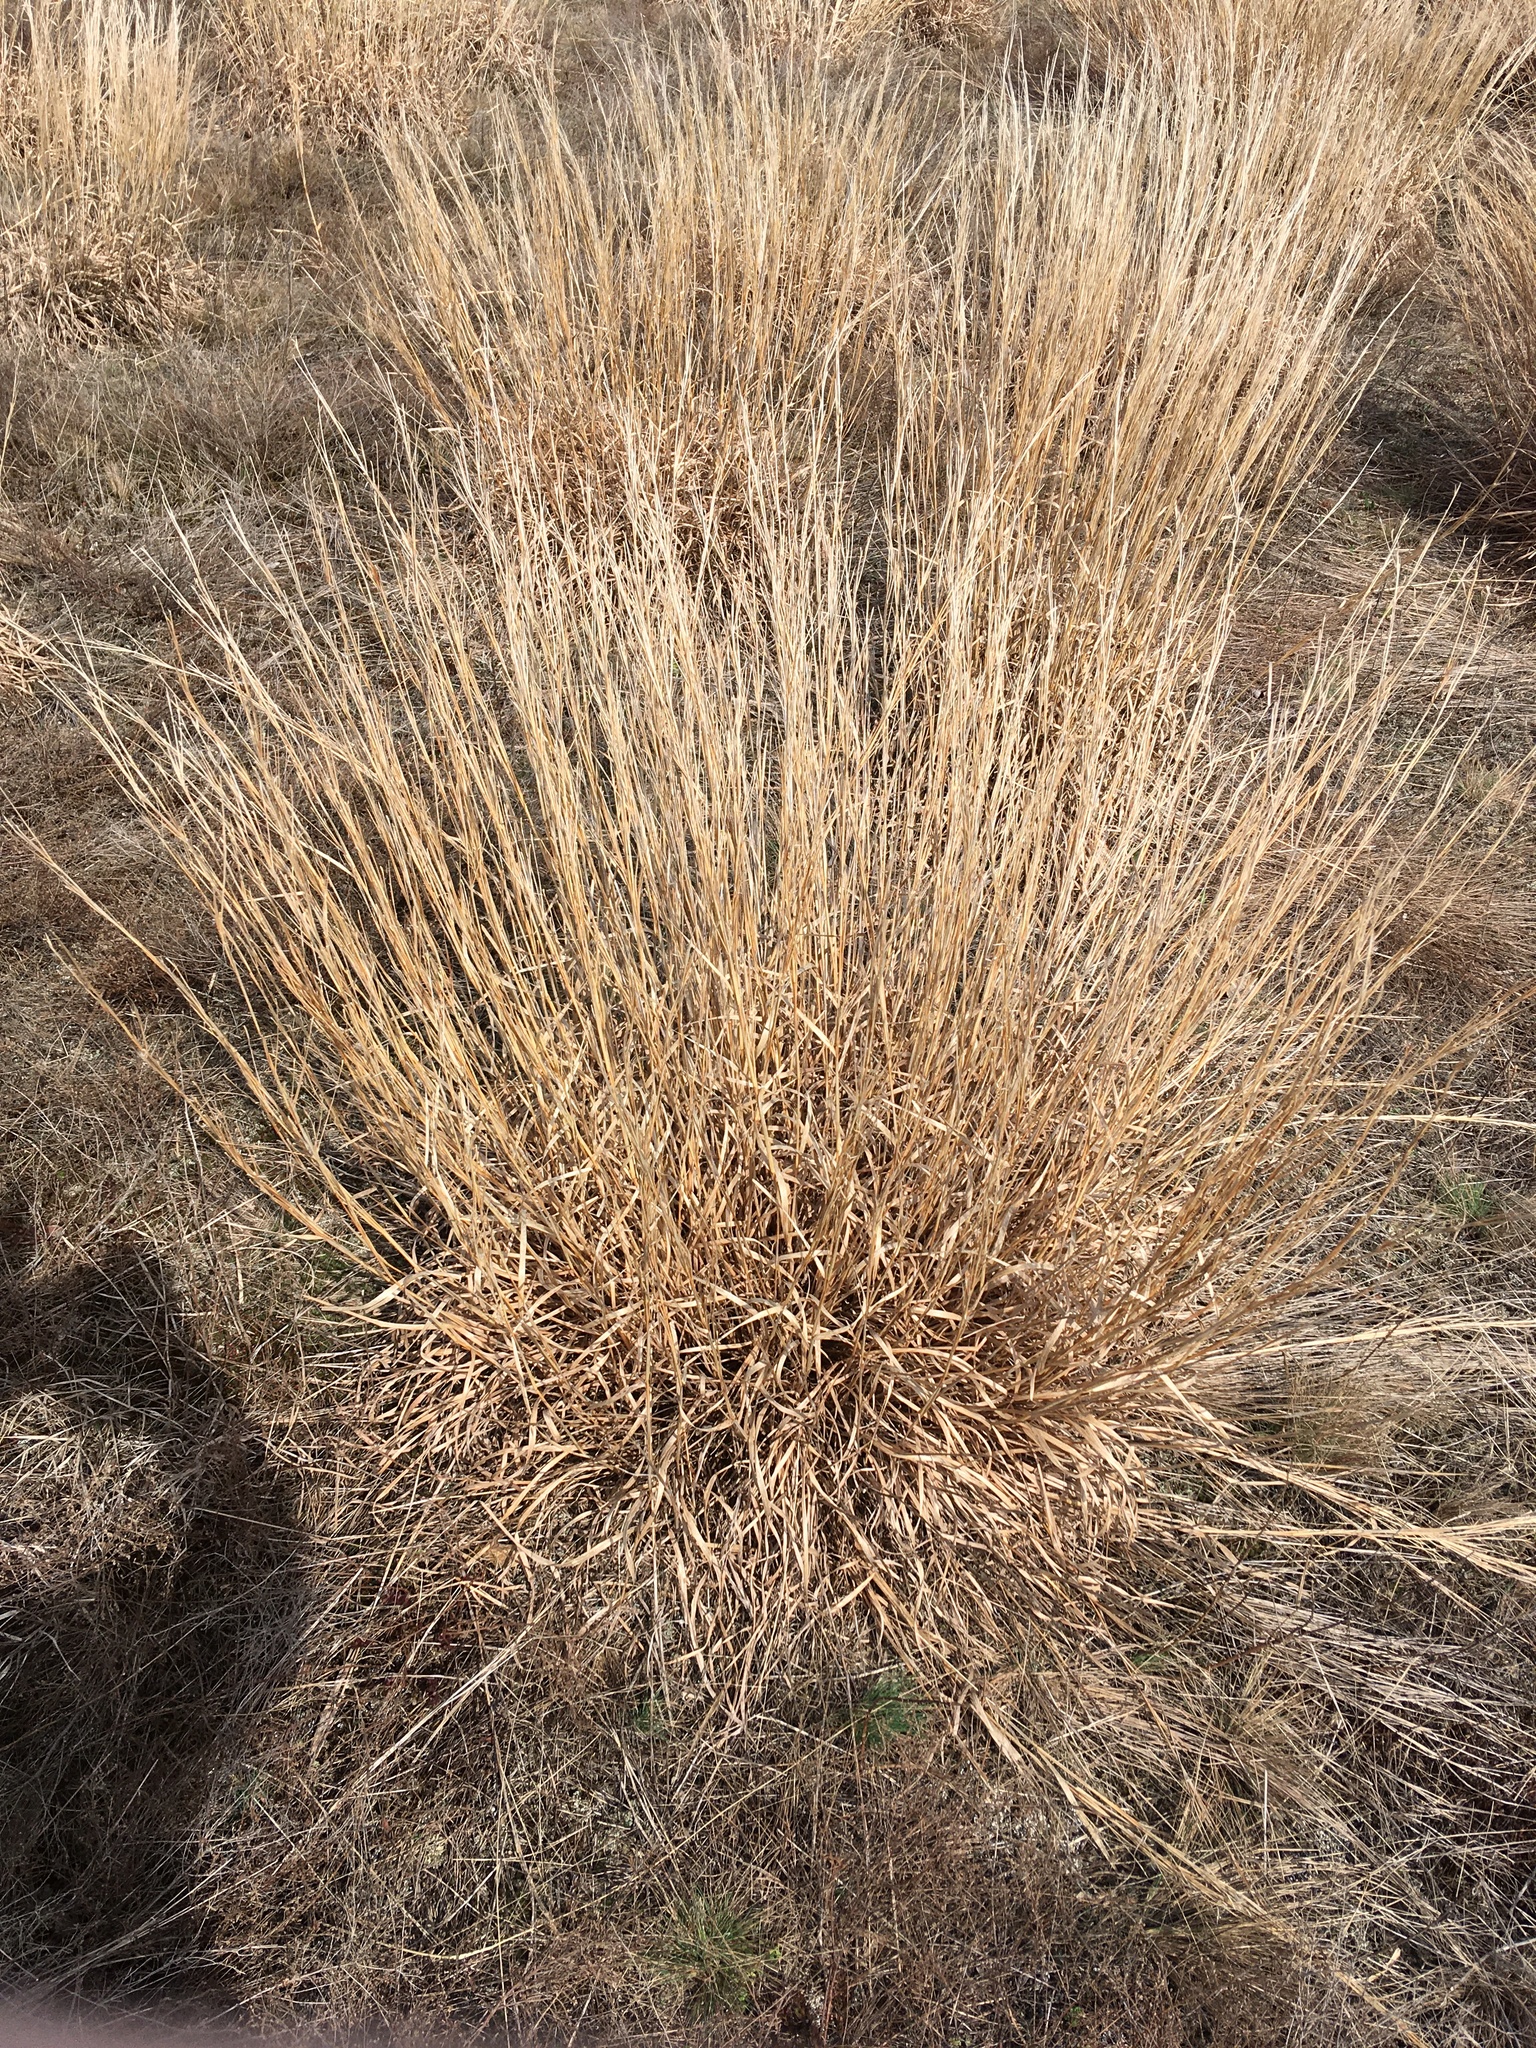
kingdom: Plantae
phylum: Tracheophyta
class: Liliopsida
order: Poales
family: Poaceae
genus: Schizachyrium
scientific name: Schizachyrium scoparium
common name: Little bluestem
